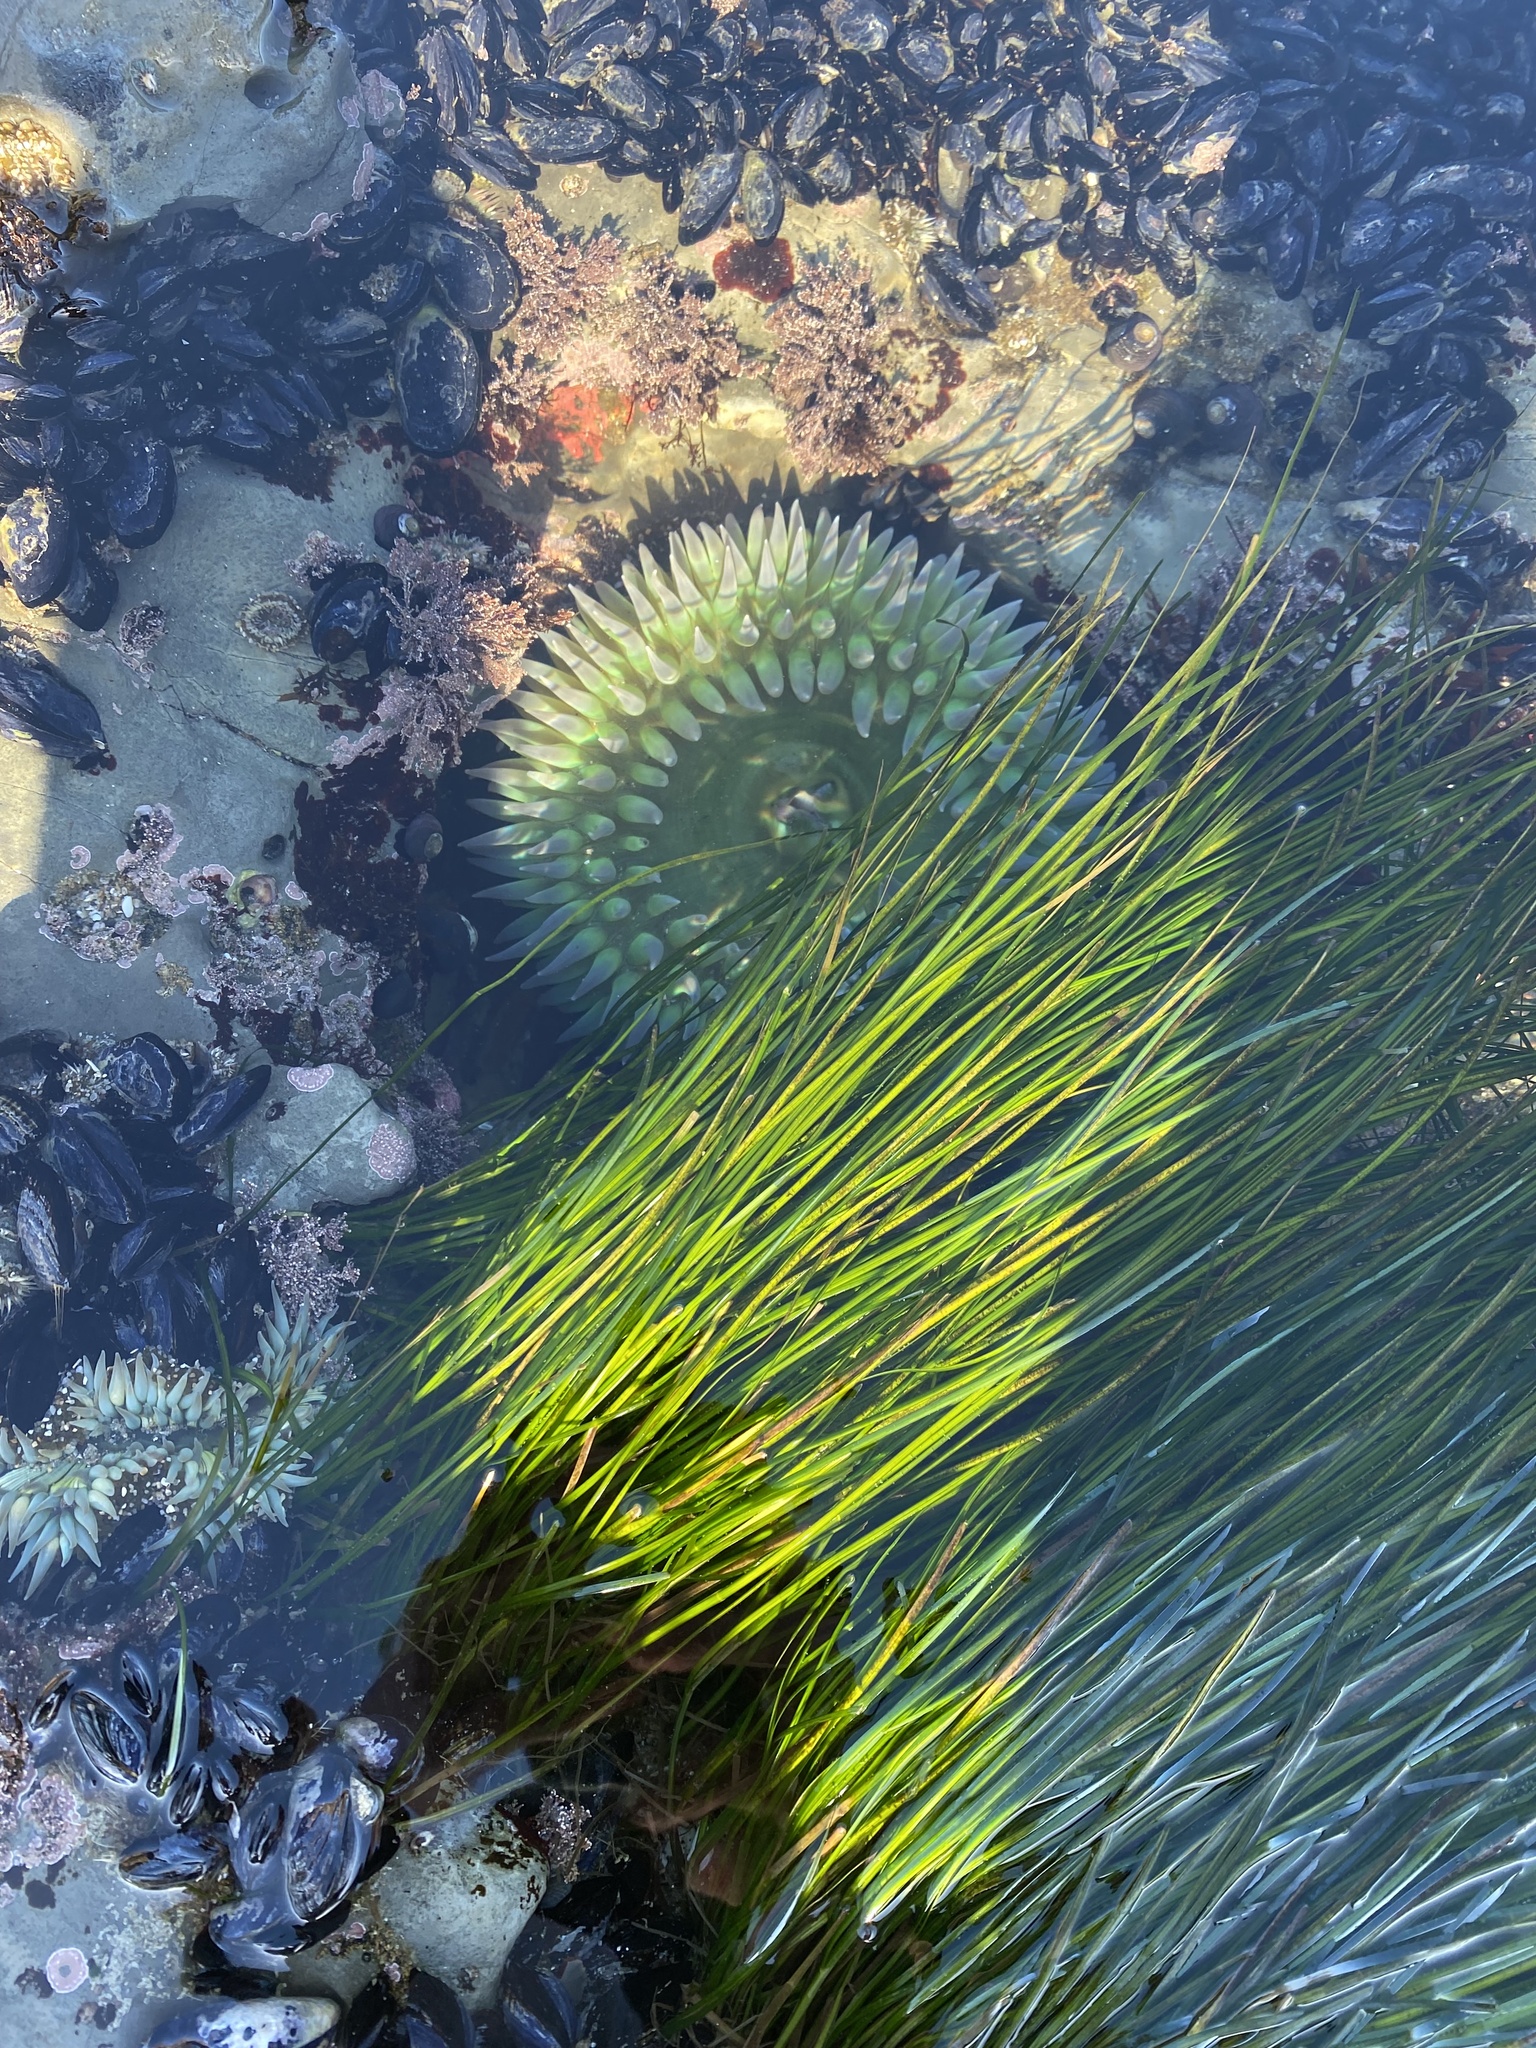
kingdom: Animalia
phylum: Cnidaria
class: Anthozoa
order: Actiniaria
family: Actiniidae
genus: Anthopleura
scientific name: Anthopleura xanthogrammica
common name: Giant green anemone
